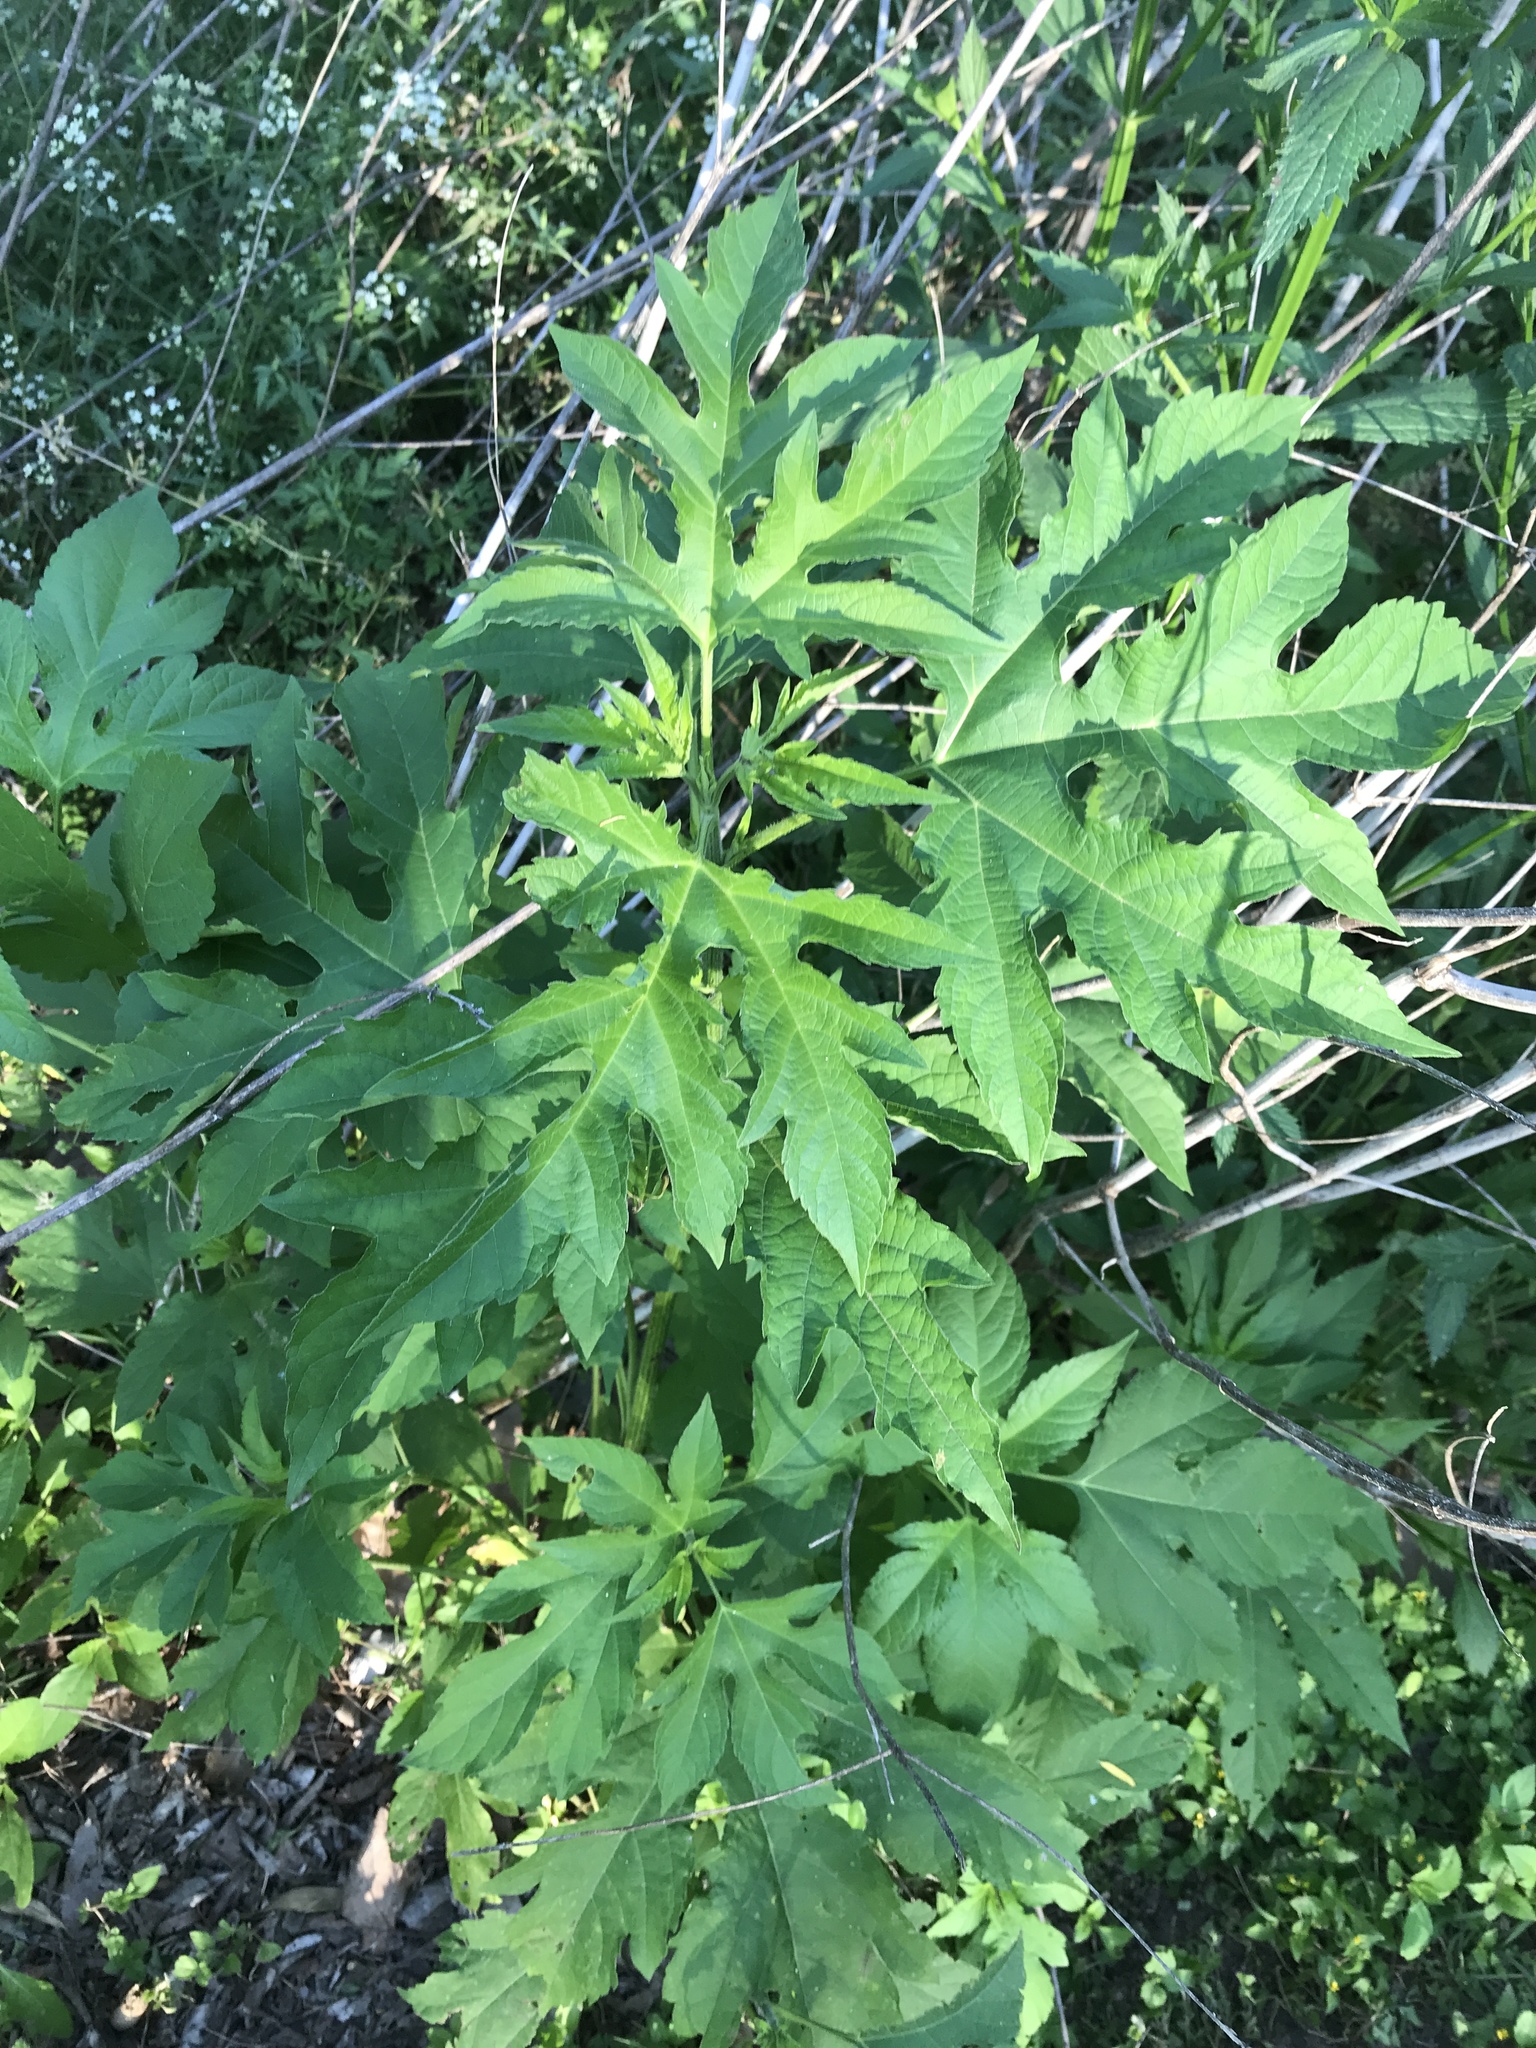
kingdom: Plantae
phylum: Tracheophyta
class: Magnoliopsida
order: Asterales
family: Asteraceae
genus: Ambrosia
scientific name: Ambrosia trifida
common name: Giant ragweed
